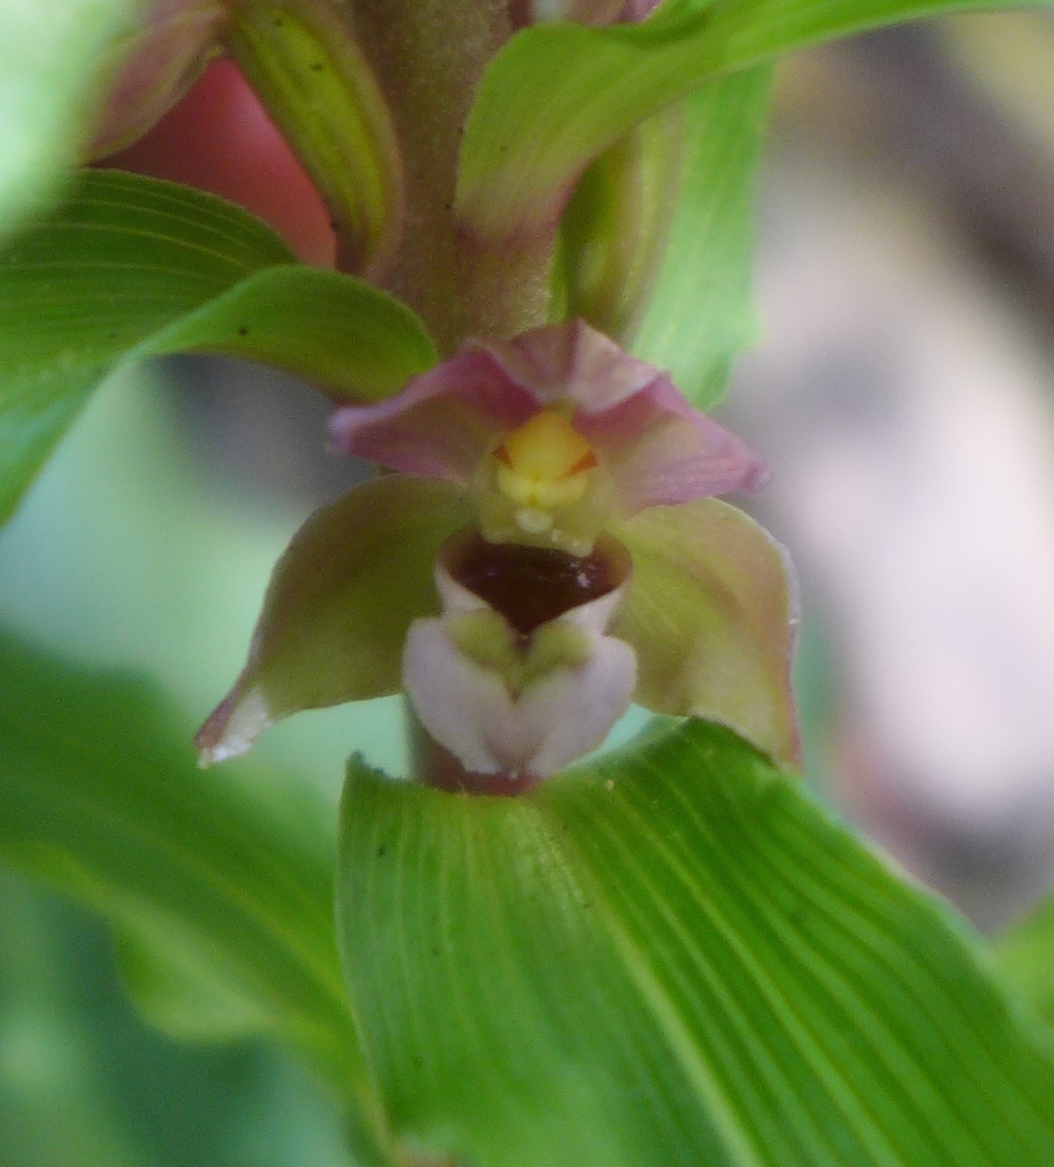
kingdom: Plantae
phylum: Tracheophyta
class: Liliopsida
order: Asparagales
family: Orchidaceae
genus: Epipactis
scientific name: Epipactis helleborine
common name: Broad-leaved helleborine
